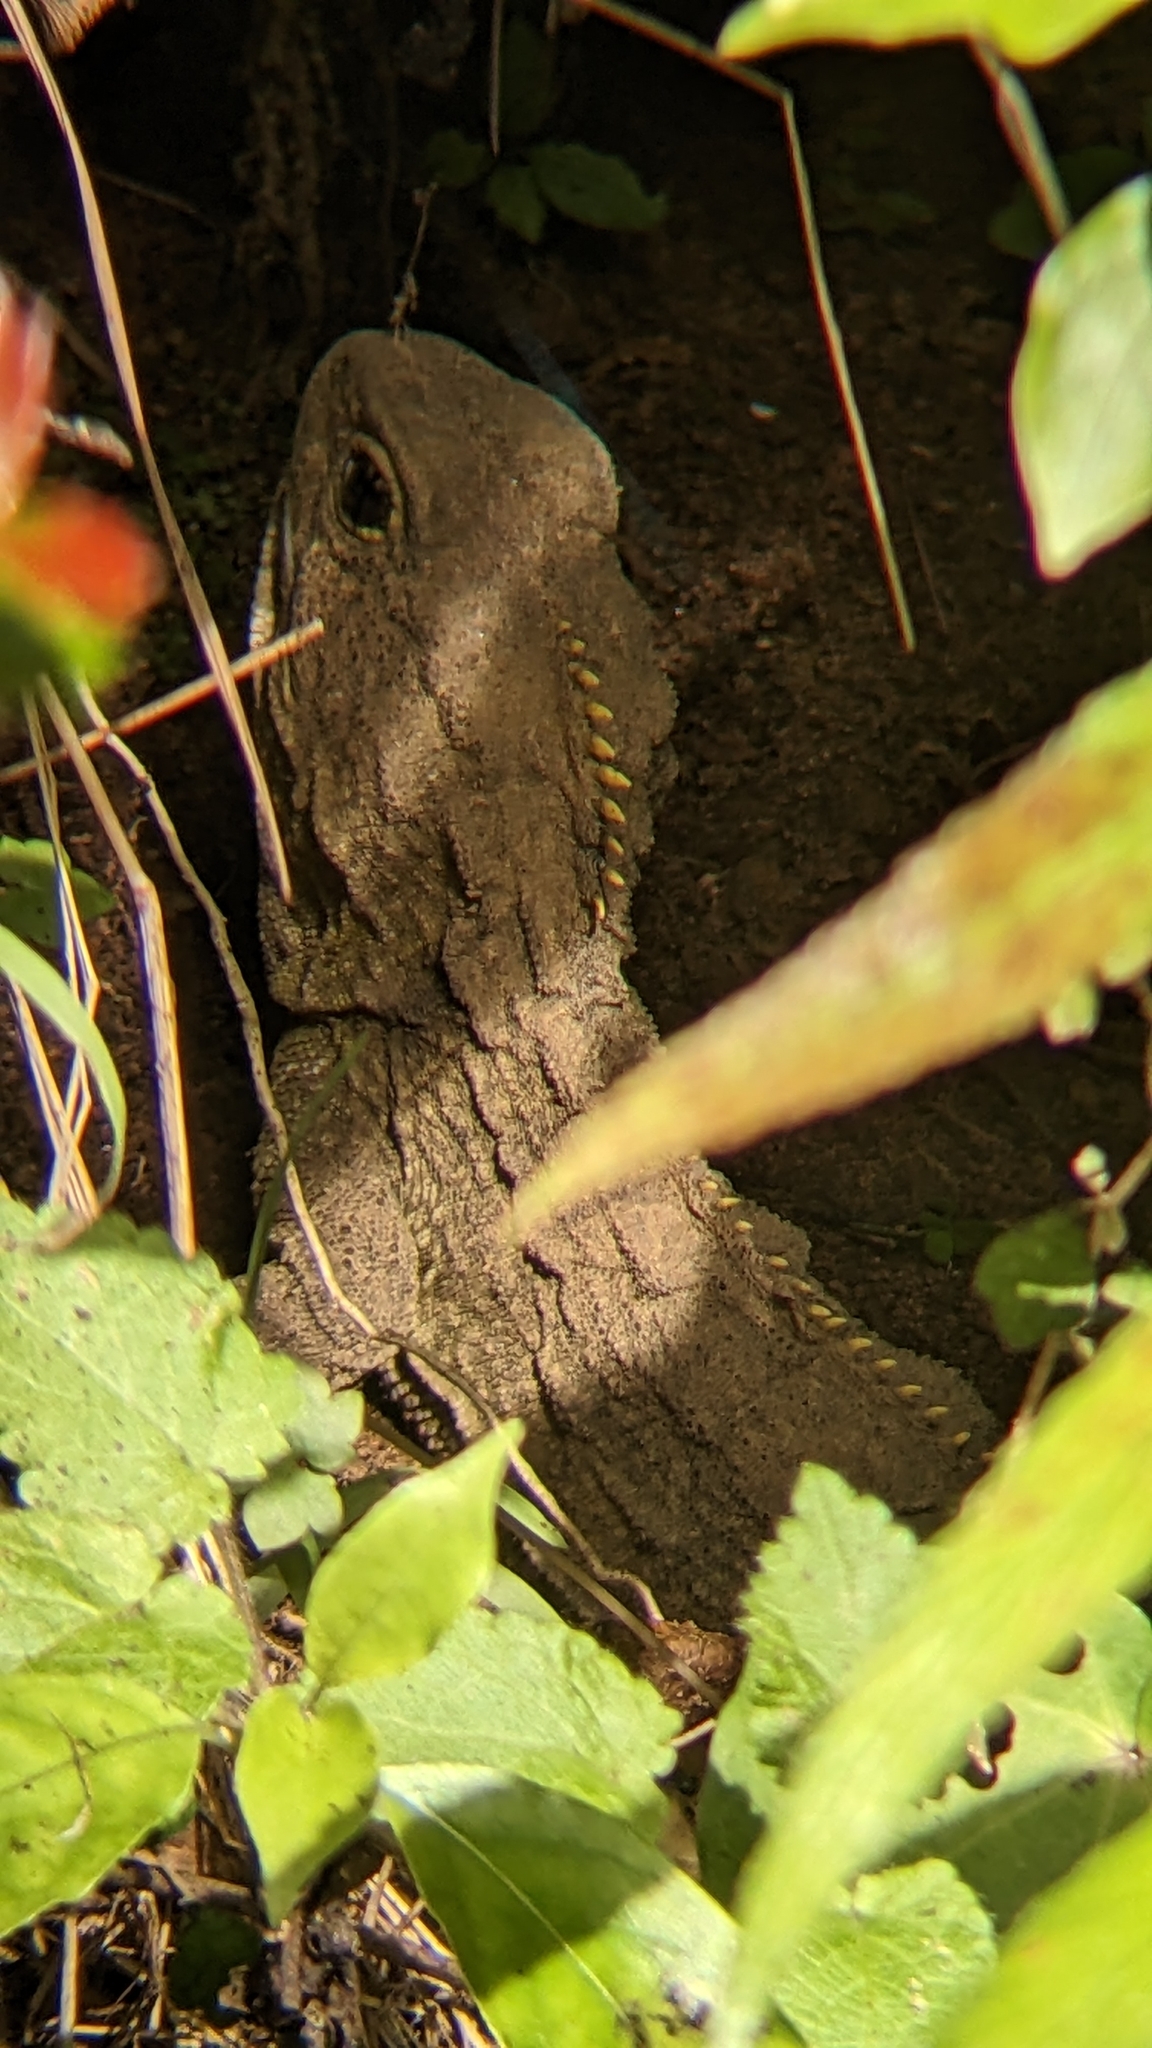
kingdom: Animalia
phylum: Chordata
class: Sphenodontia
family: Sphenodontidae
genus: Sphenodon
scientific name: Sphenodon punctatus
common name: Tuatara
